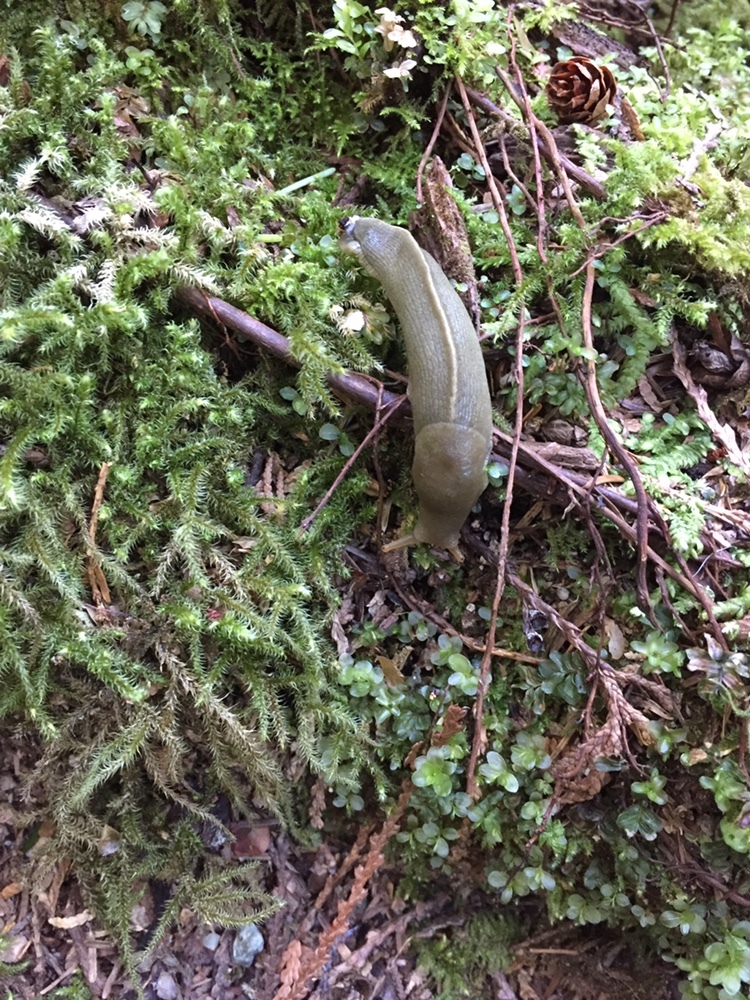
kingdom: Animalia
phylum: Mollusca
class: Gastropoda
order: Stylommatophora
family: Ariolimacidae
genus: Ariolimax
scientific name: Ariolimax columbianus
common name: Pacific banana slug
